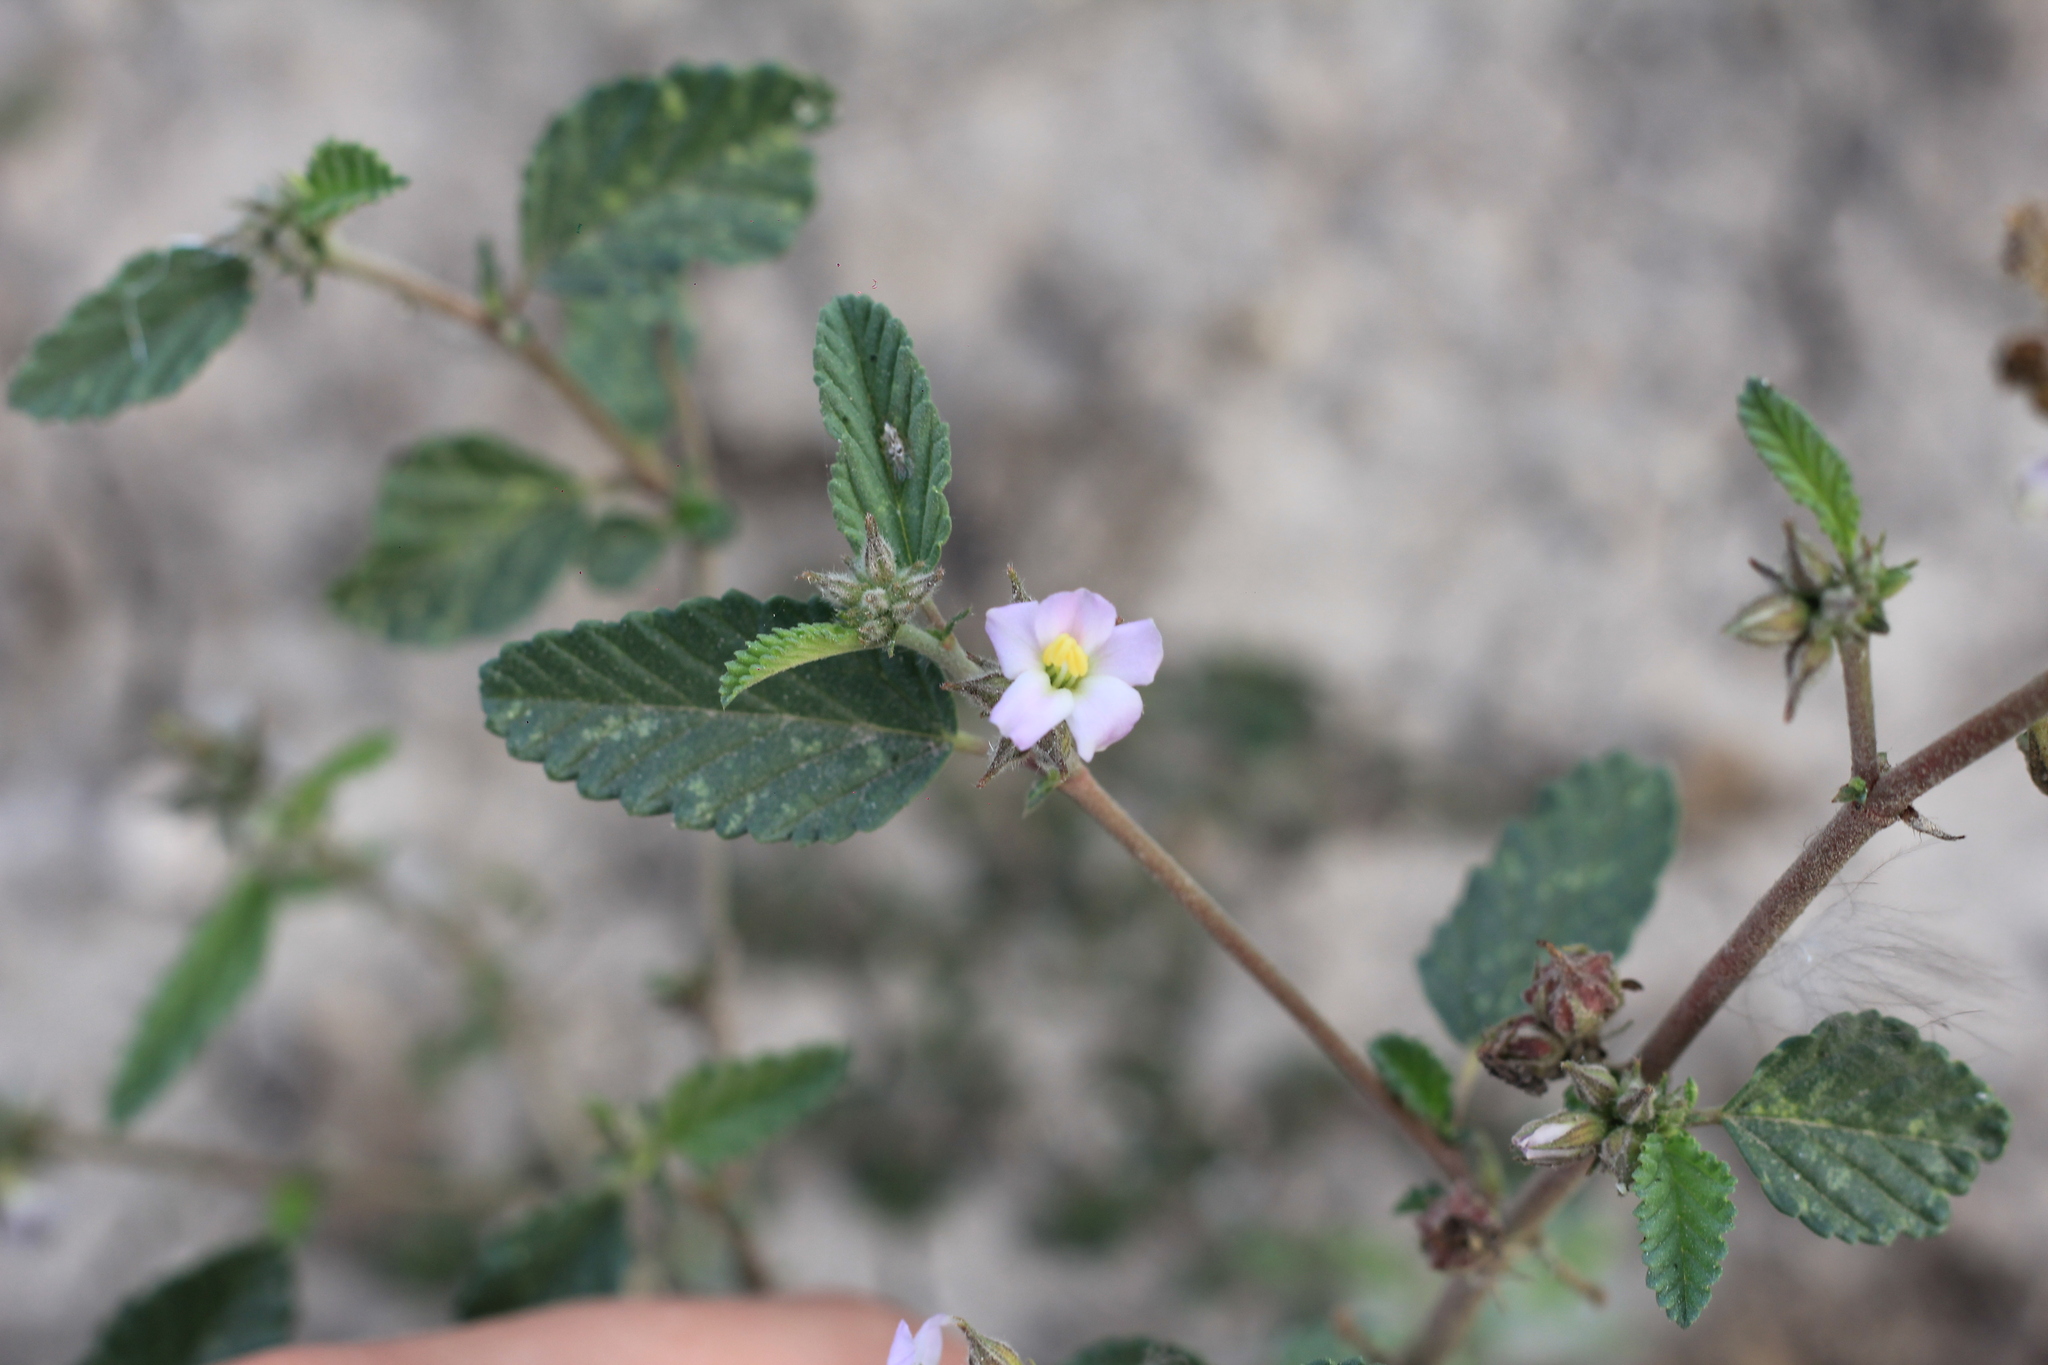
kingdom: Plantae
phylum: Tracheophyta
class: Magnoliopsida
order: Malvales
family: Malvaceae
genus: Melochia
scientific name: Melochia pyramidata
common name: Pyramidflower
